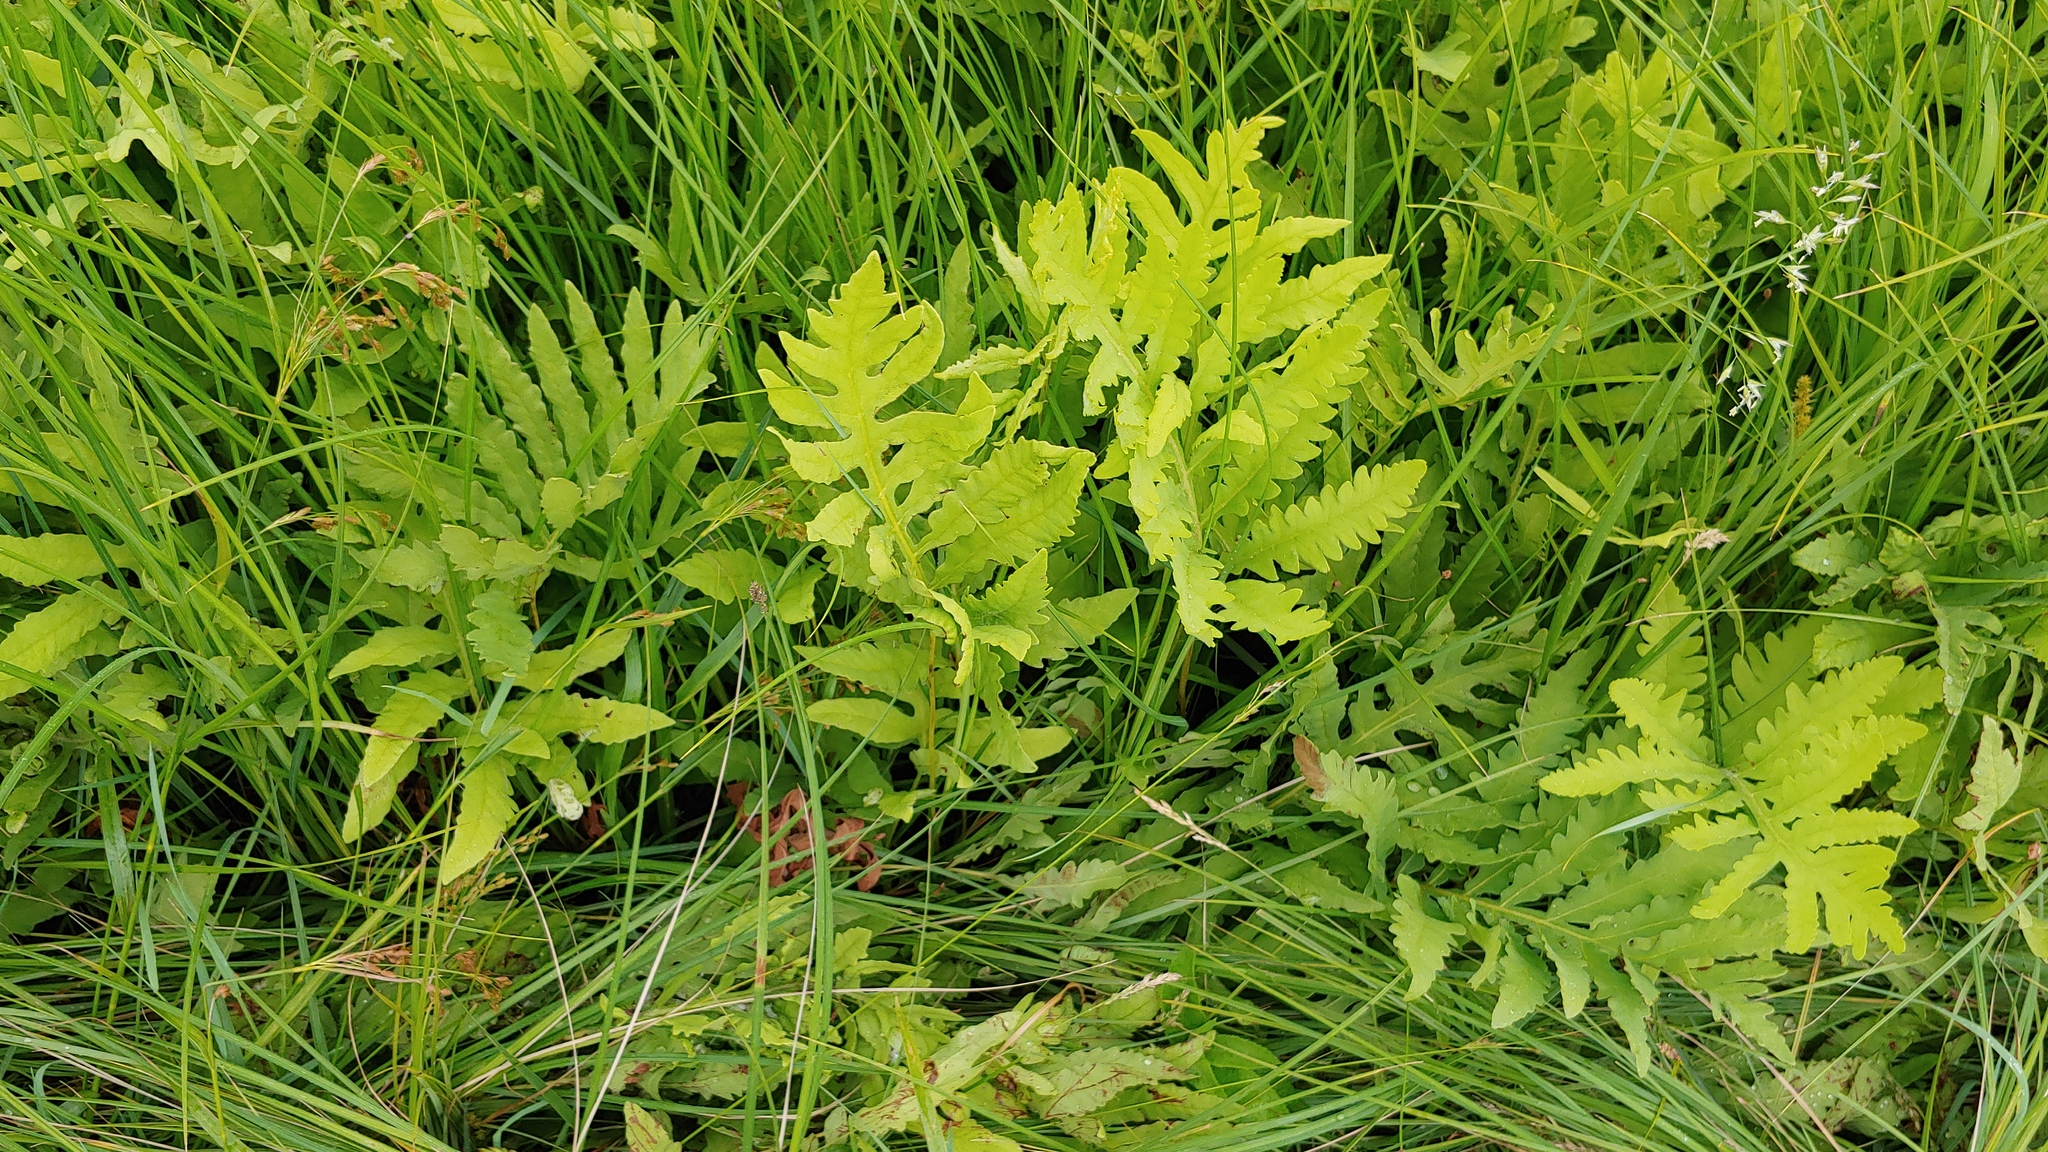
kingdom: Plantae
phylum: Tracheophyta
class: Polypodiopsida
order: Polypodiales
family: Onocleaceae
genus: Onoclea
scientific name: Onoclea sensibilis
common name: Sensitive fern
